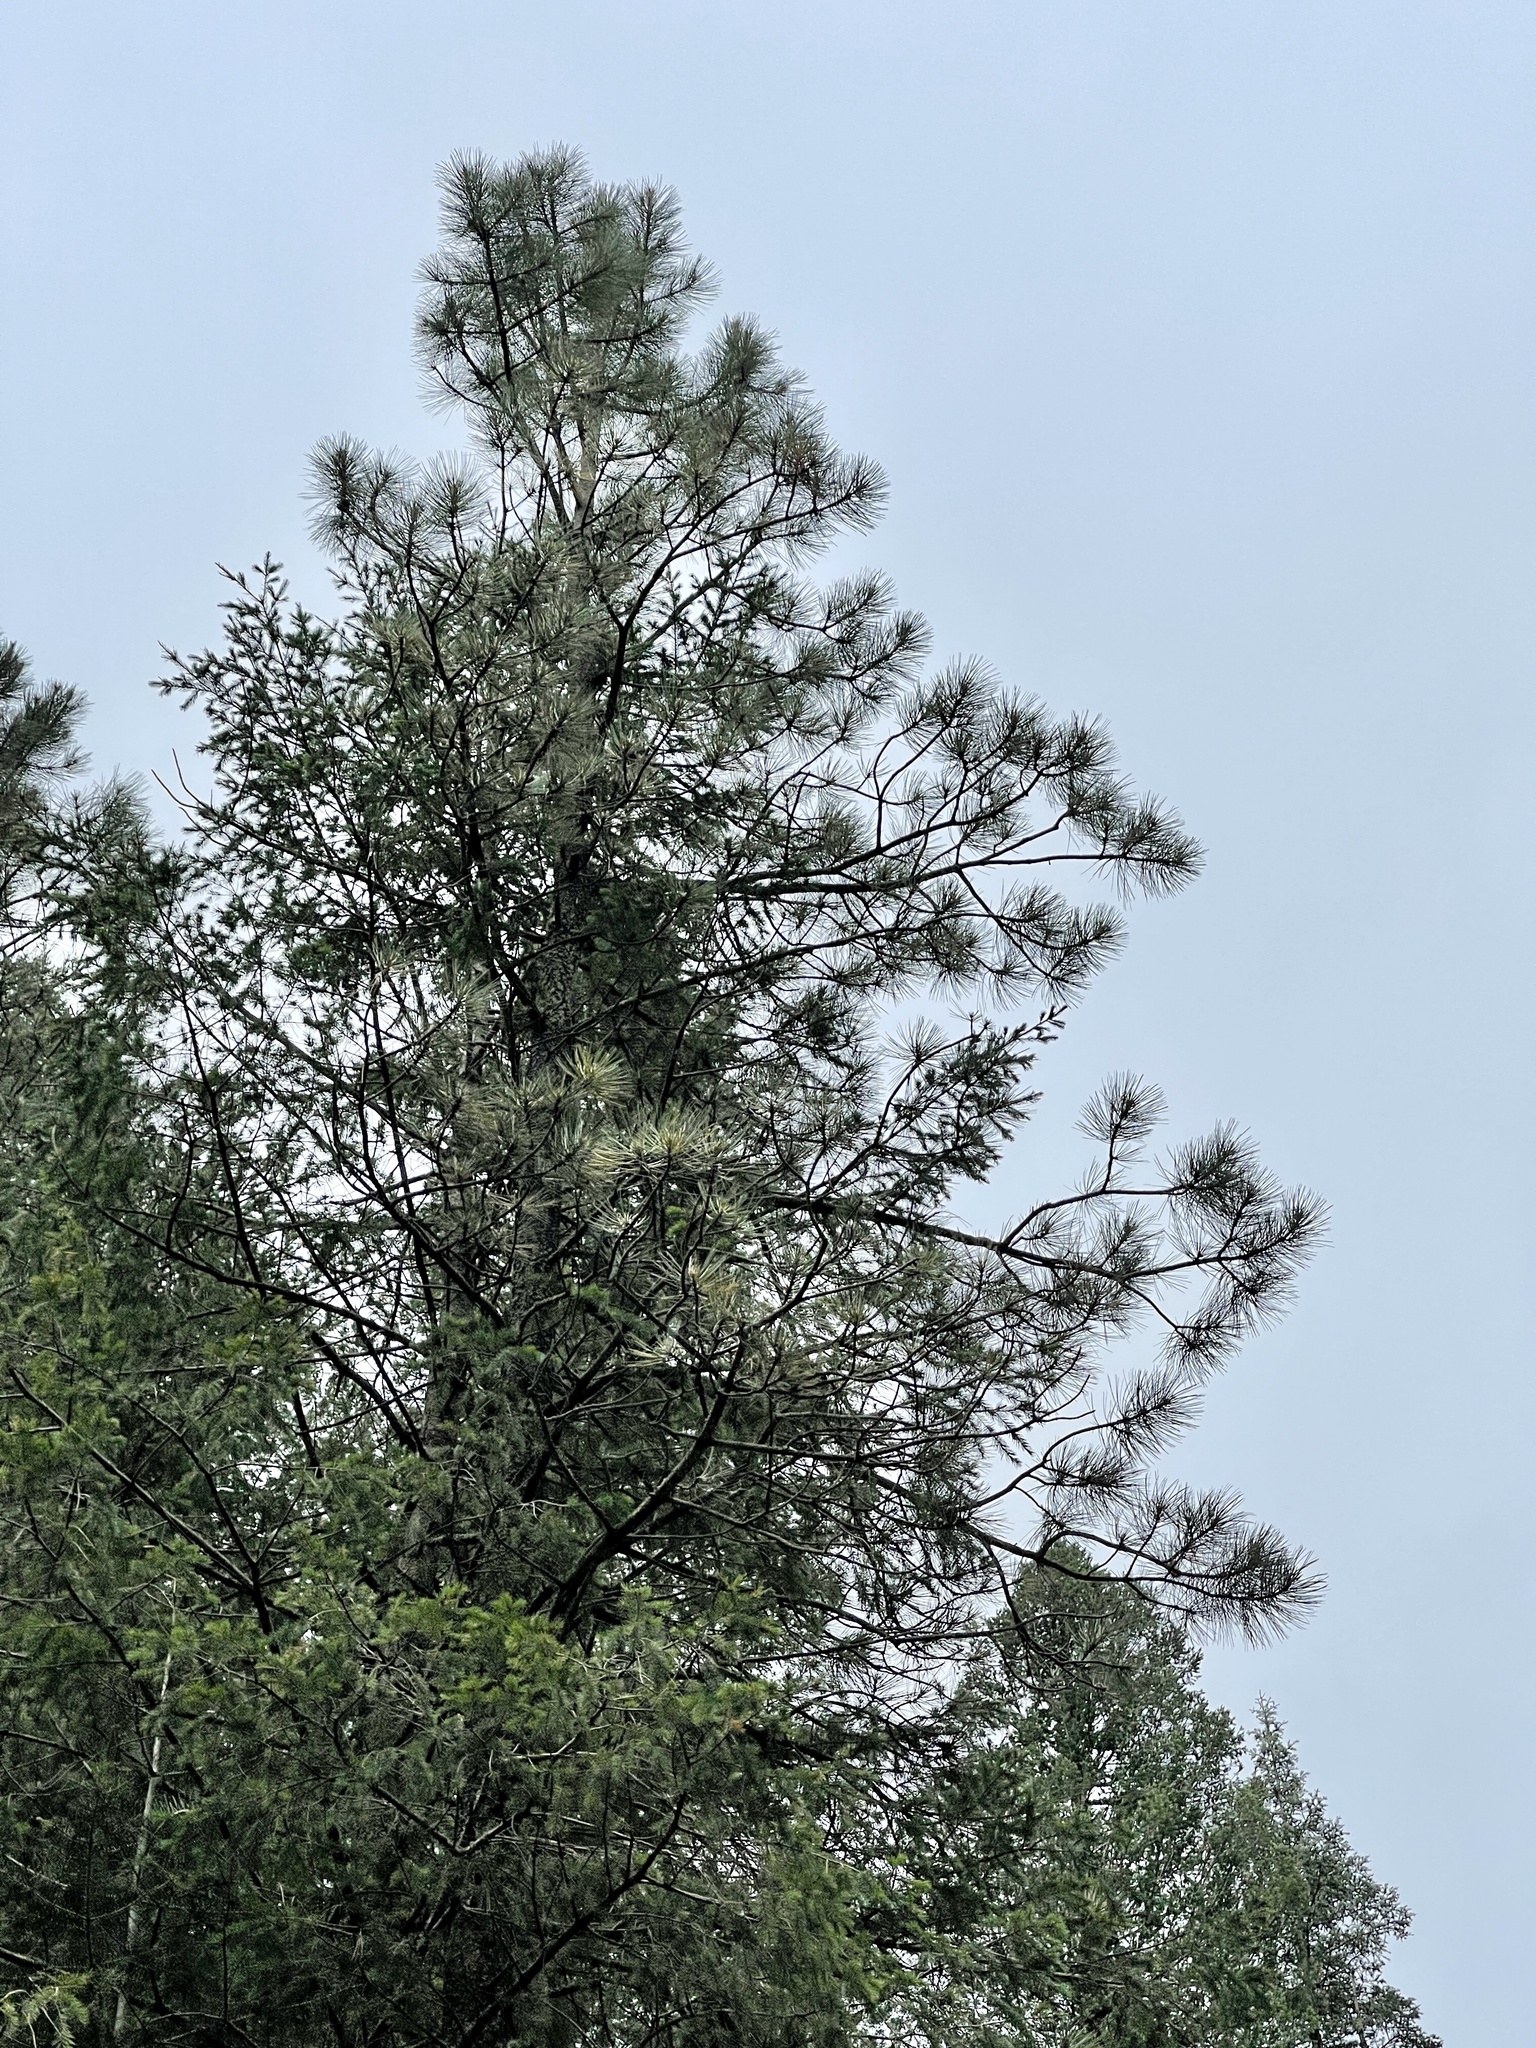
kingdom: Plantae
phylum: Tracheophyta
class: Pinopsida
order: Pinales
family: Pinaceae
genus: Pinus
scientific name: Pinus ponderosa
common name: Western yellow-pine
